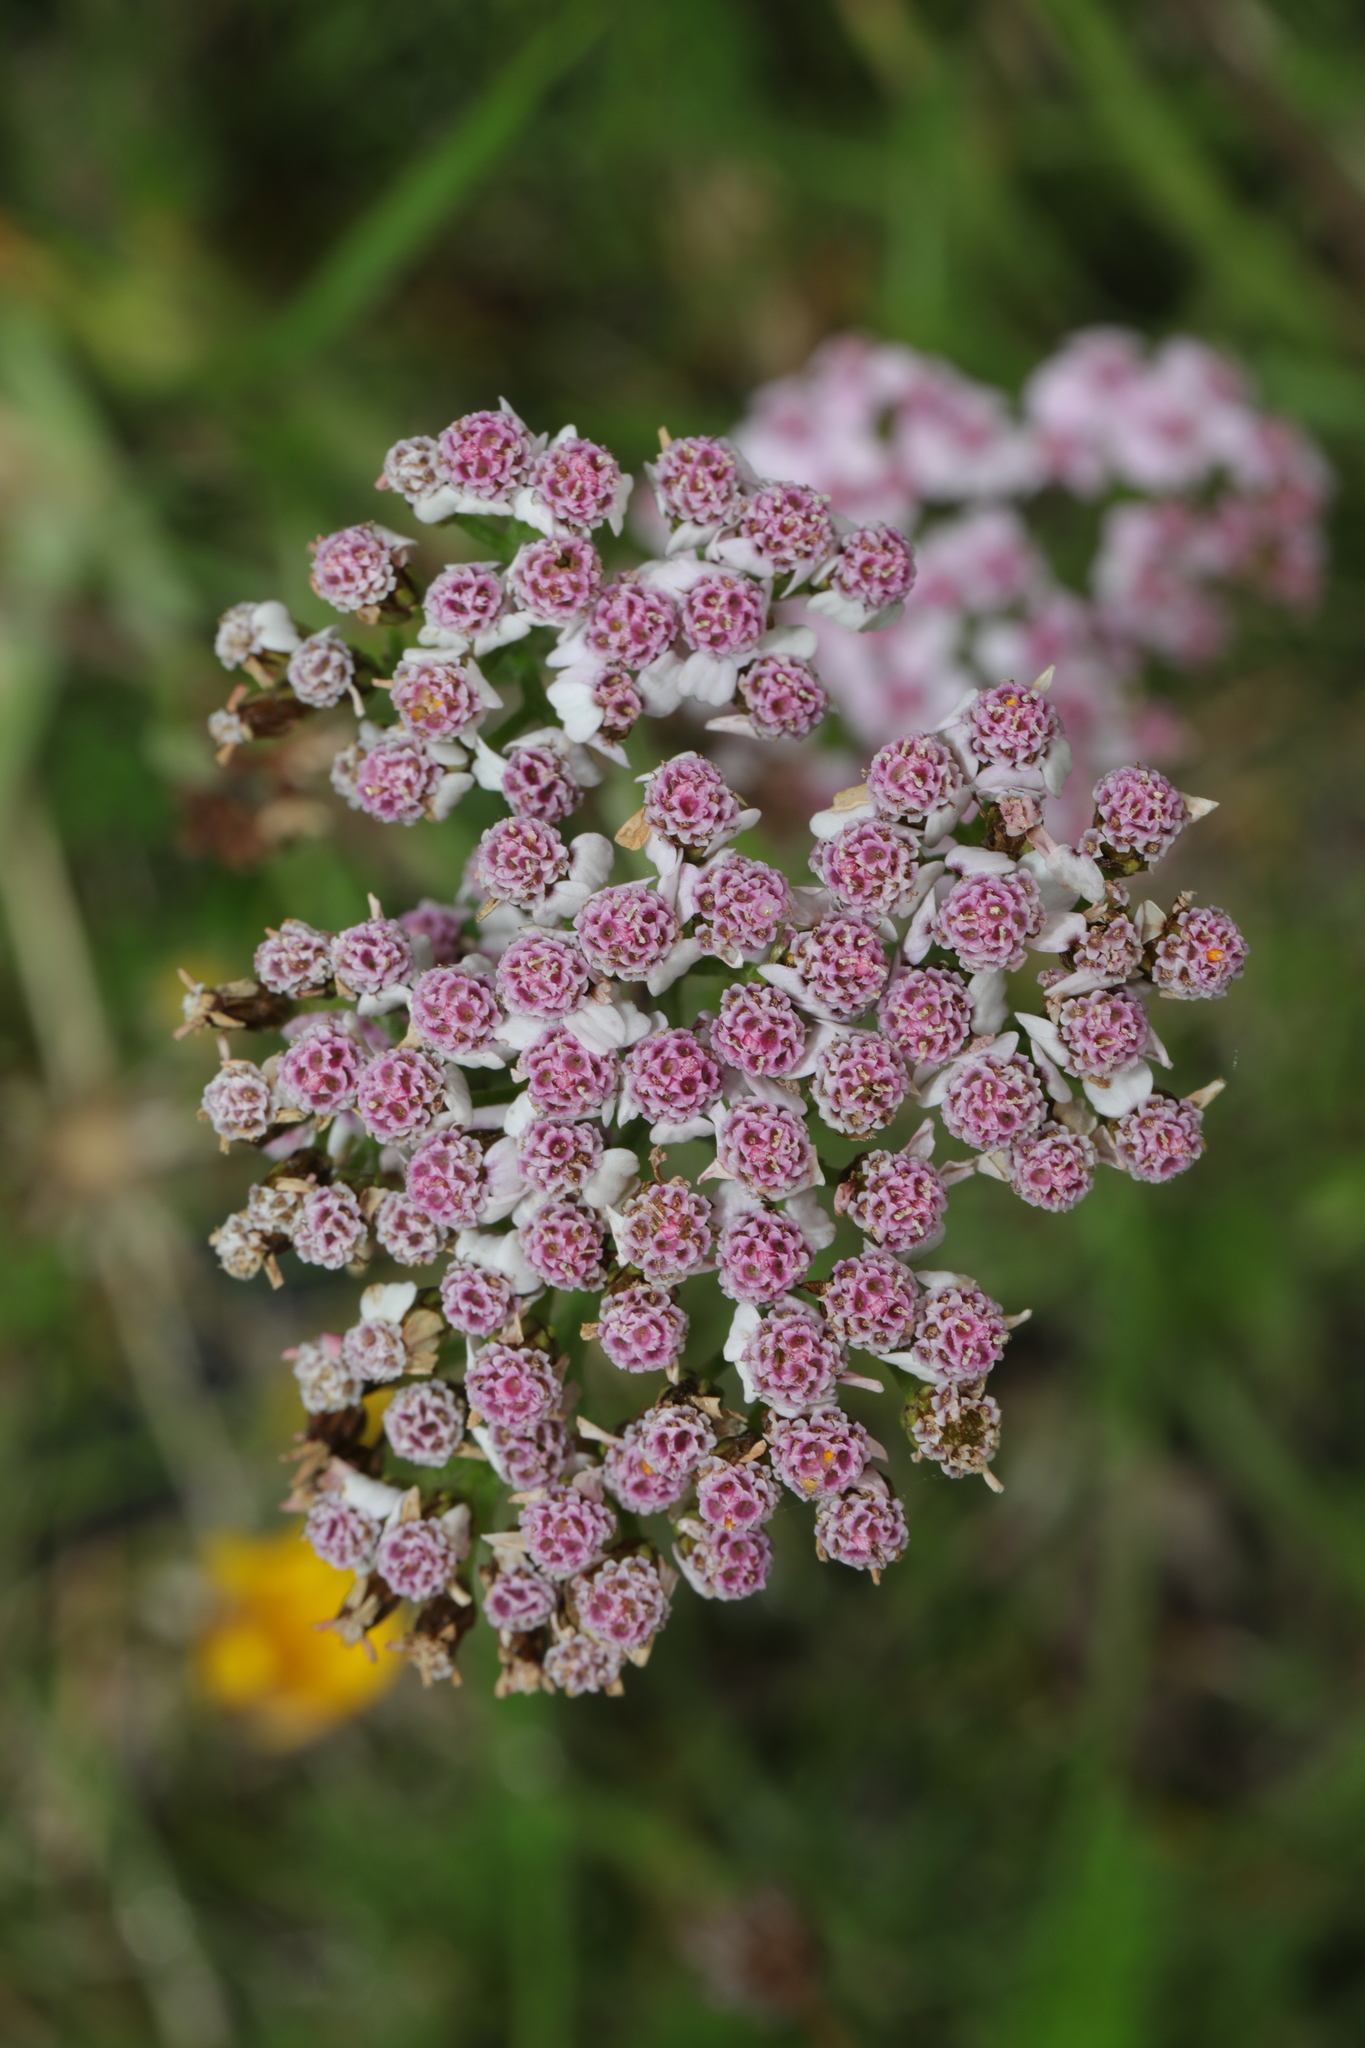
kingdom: Plantae
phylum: Tracheophyta
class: Magnoliopsida
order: Asterales
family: Asteraceae
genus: Achillea
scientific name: Achillea millefolium
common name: Yarrow
